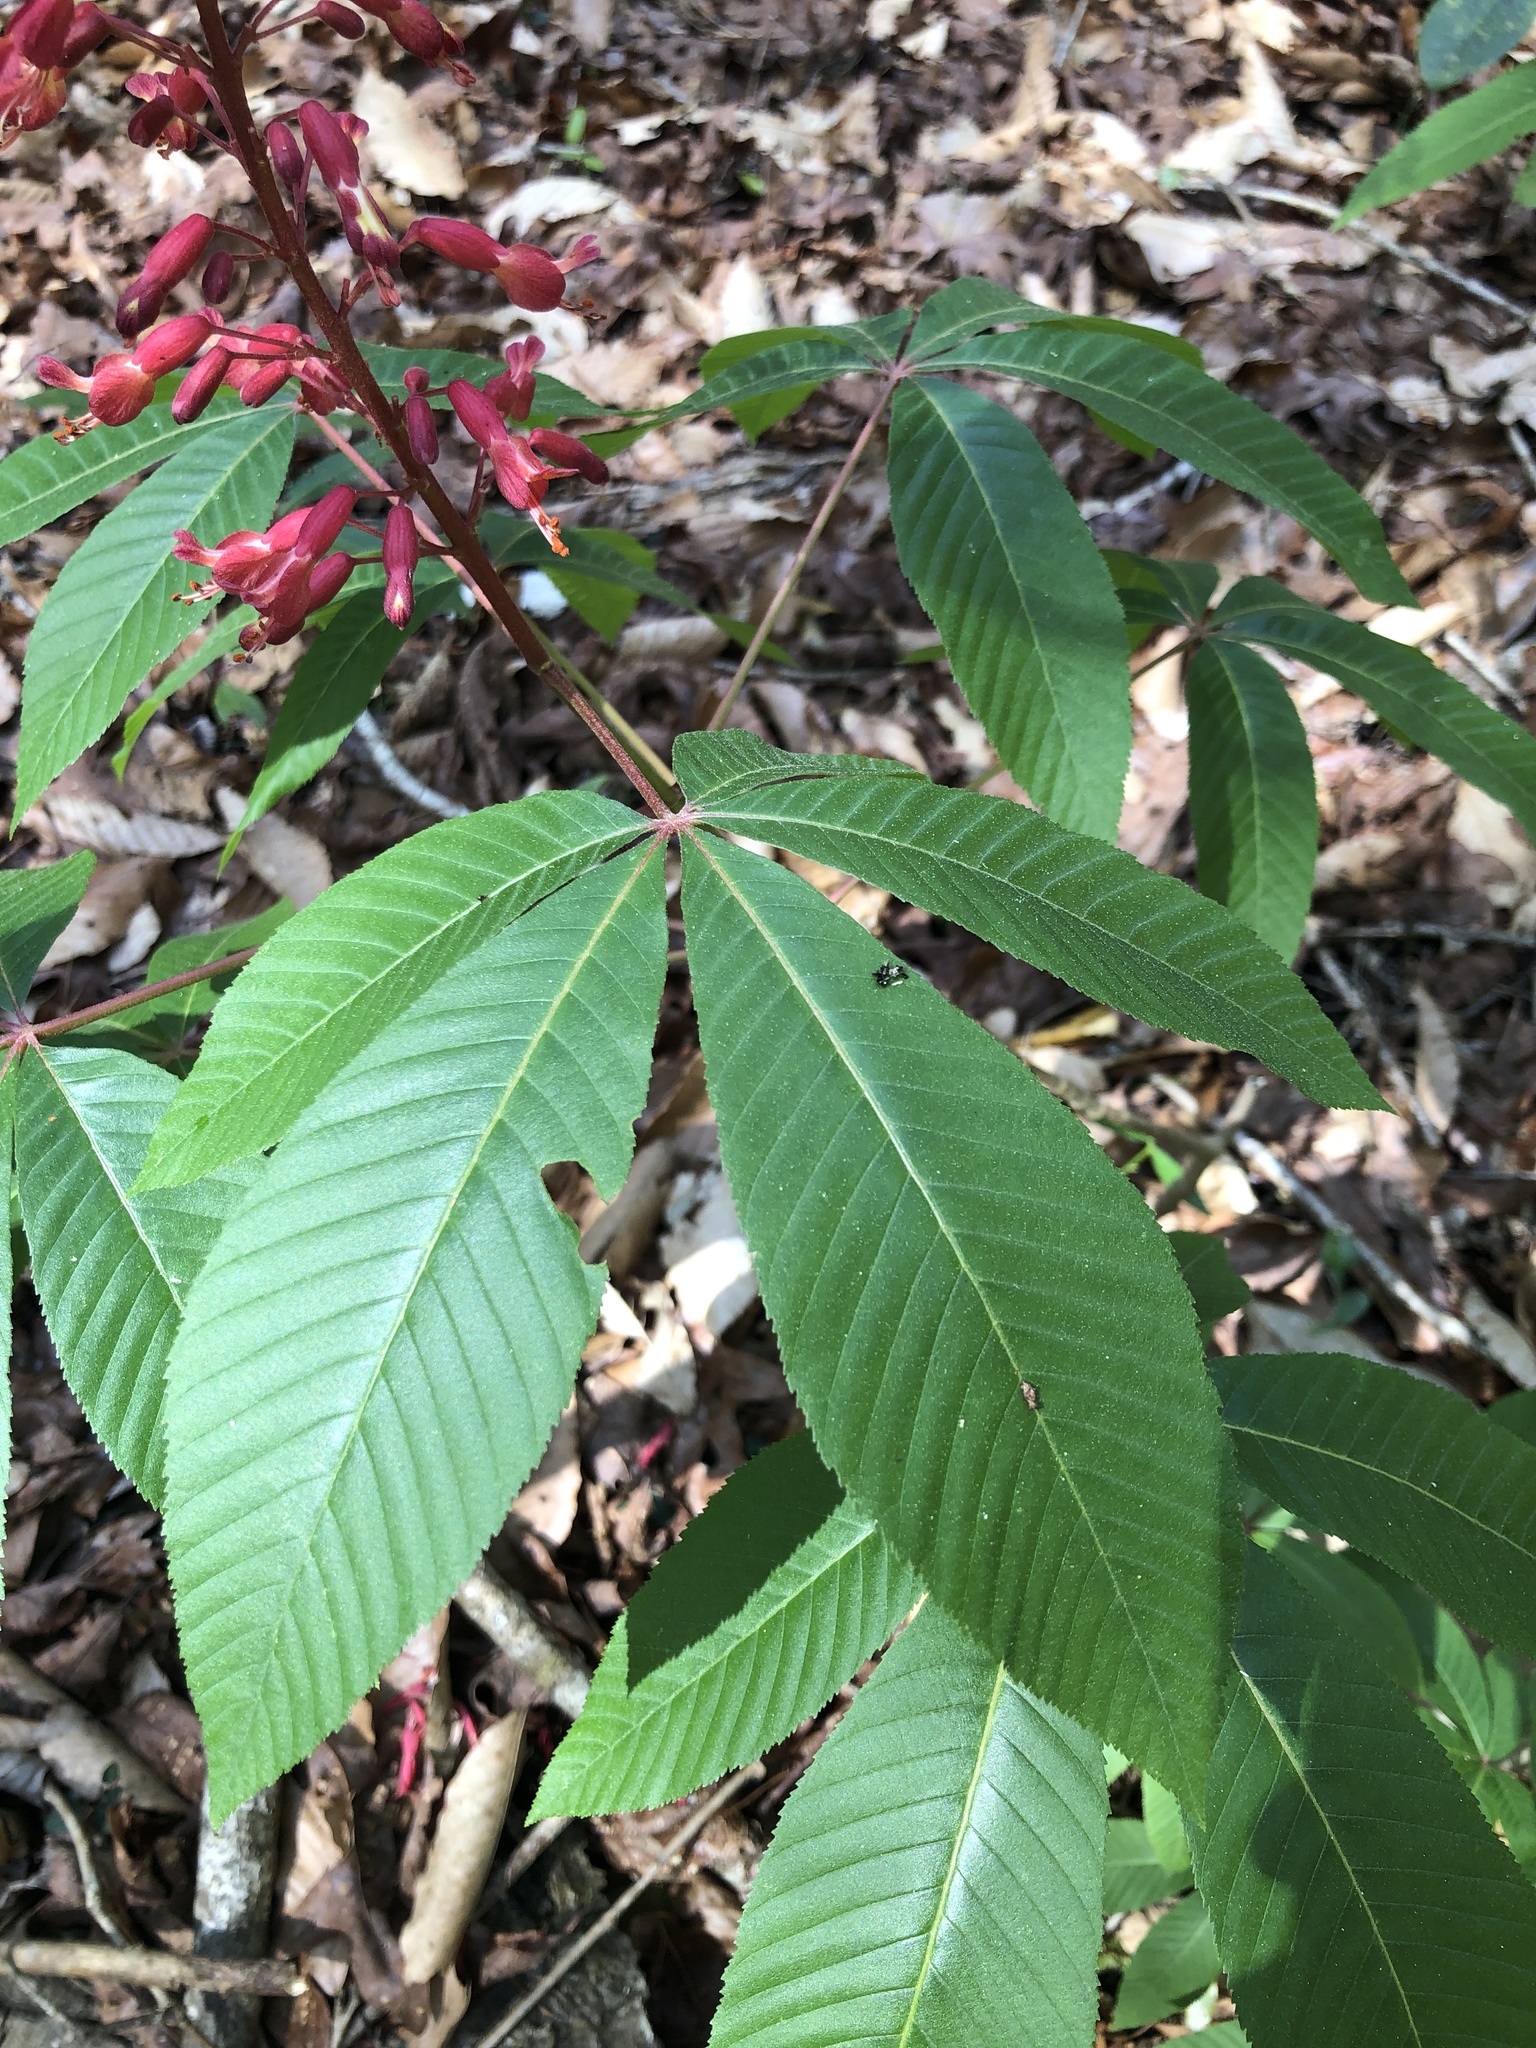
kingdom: Plantae
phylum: Tracheophyta
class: Magnoliopsida
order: Sapindales
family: Sapindaceae
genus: Aesculus
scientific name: Aesculus pavia
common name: Red buckeye
